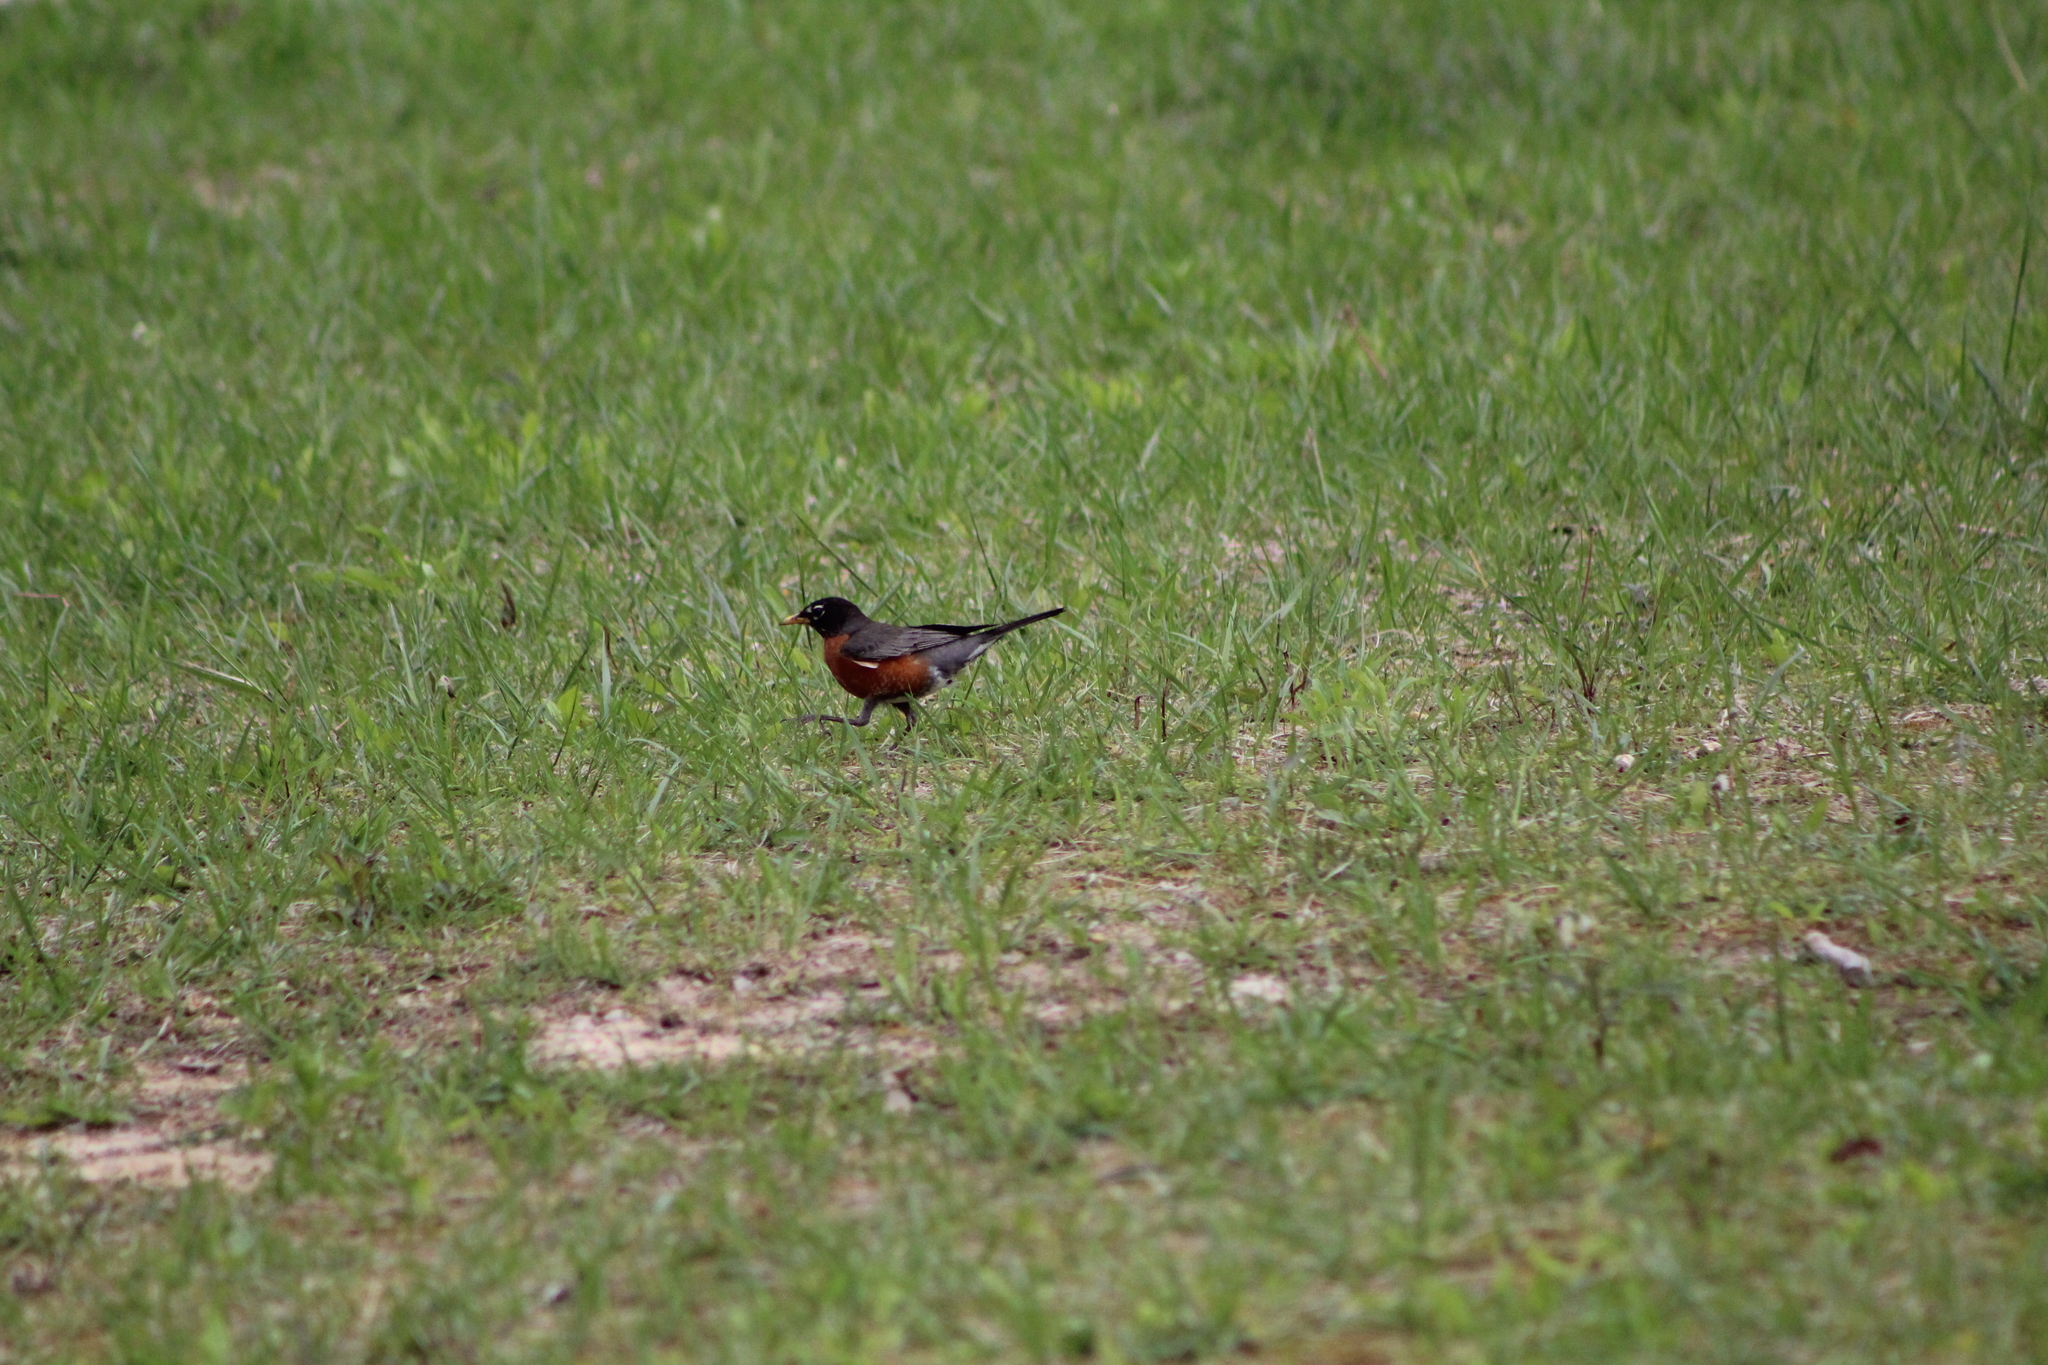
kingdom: Animalia
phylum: Chordata
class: Aves
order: Passeriformes
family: Turdidae
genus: Turdus
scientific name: Turdus migratorius
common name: American robin
